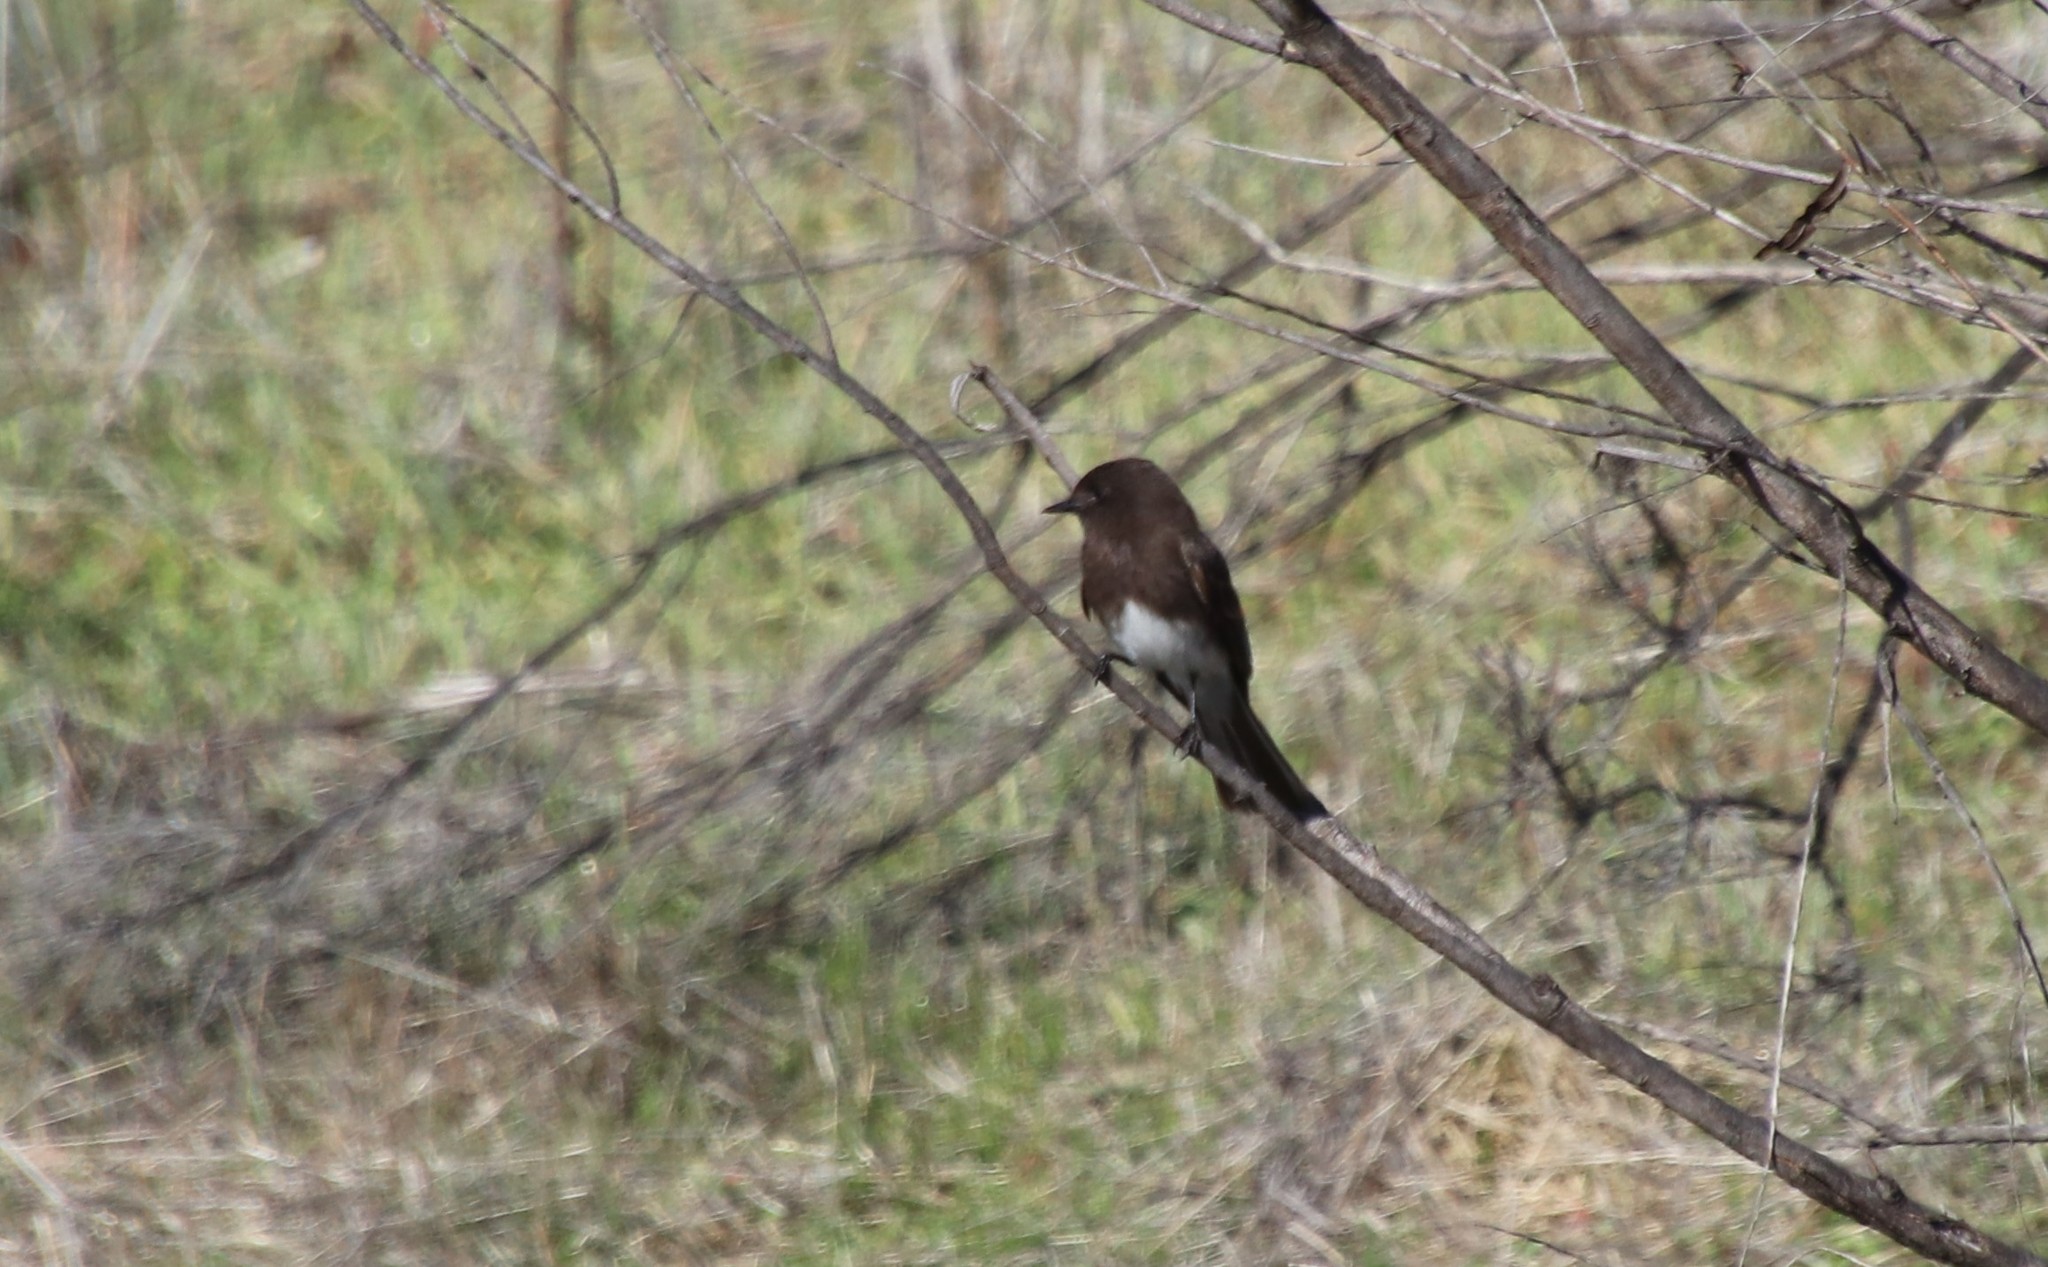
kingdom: Animalia
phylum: Chordata
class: Aves
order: Passeriformes
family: Tyrannidae
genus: Sayornis
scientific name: Sayornis nigricans
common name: Black phoebe
